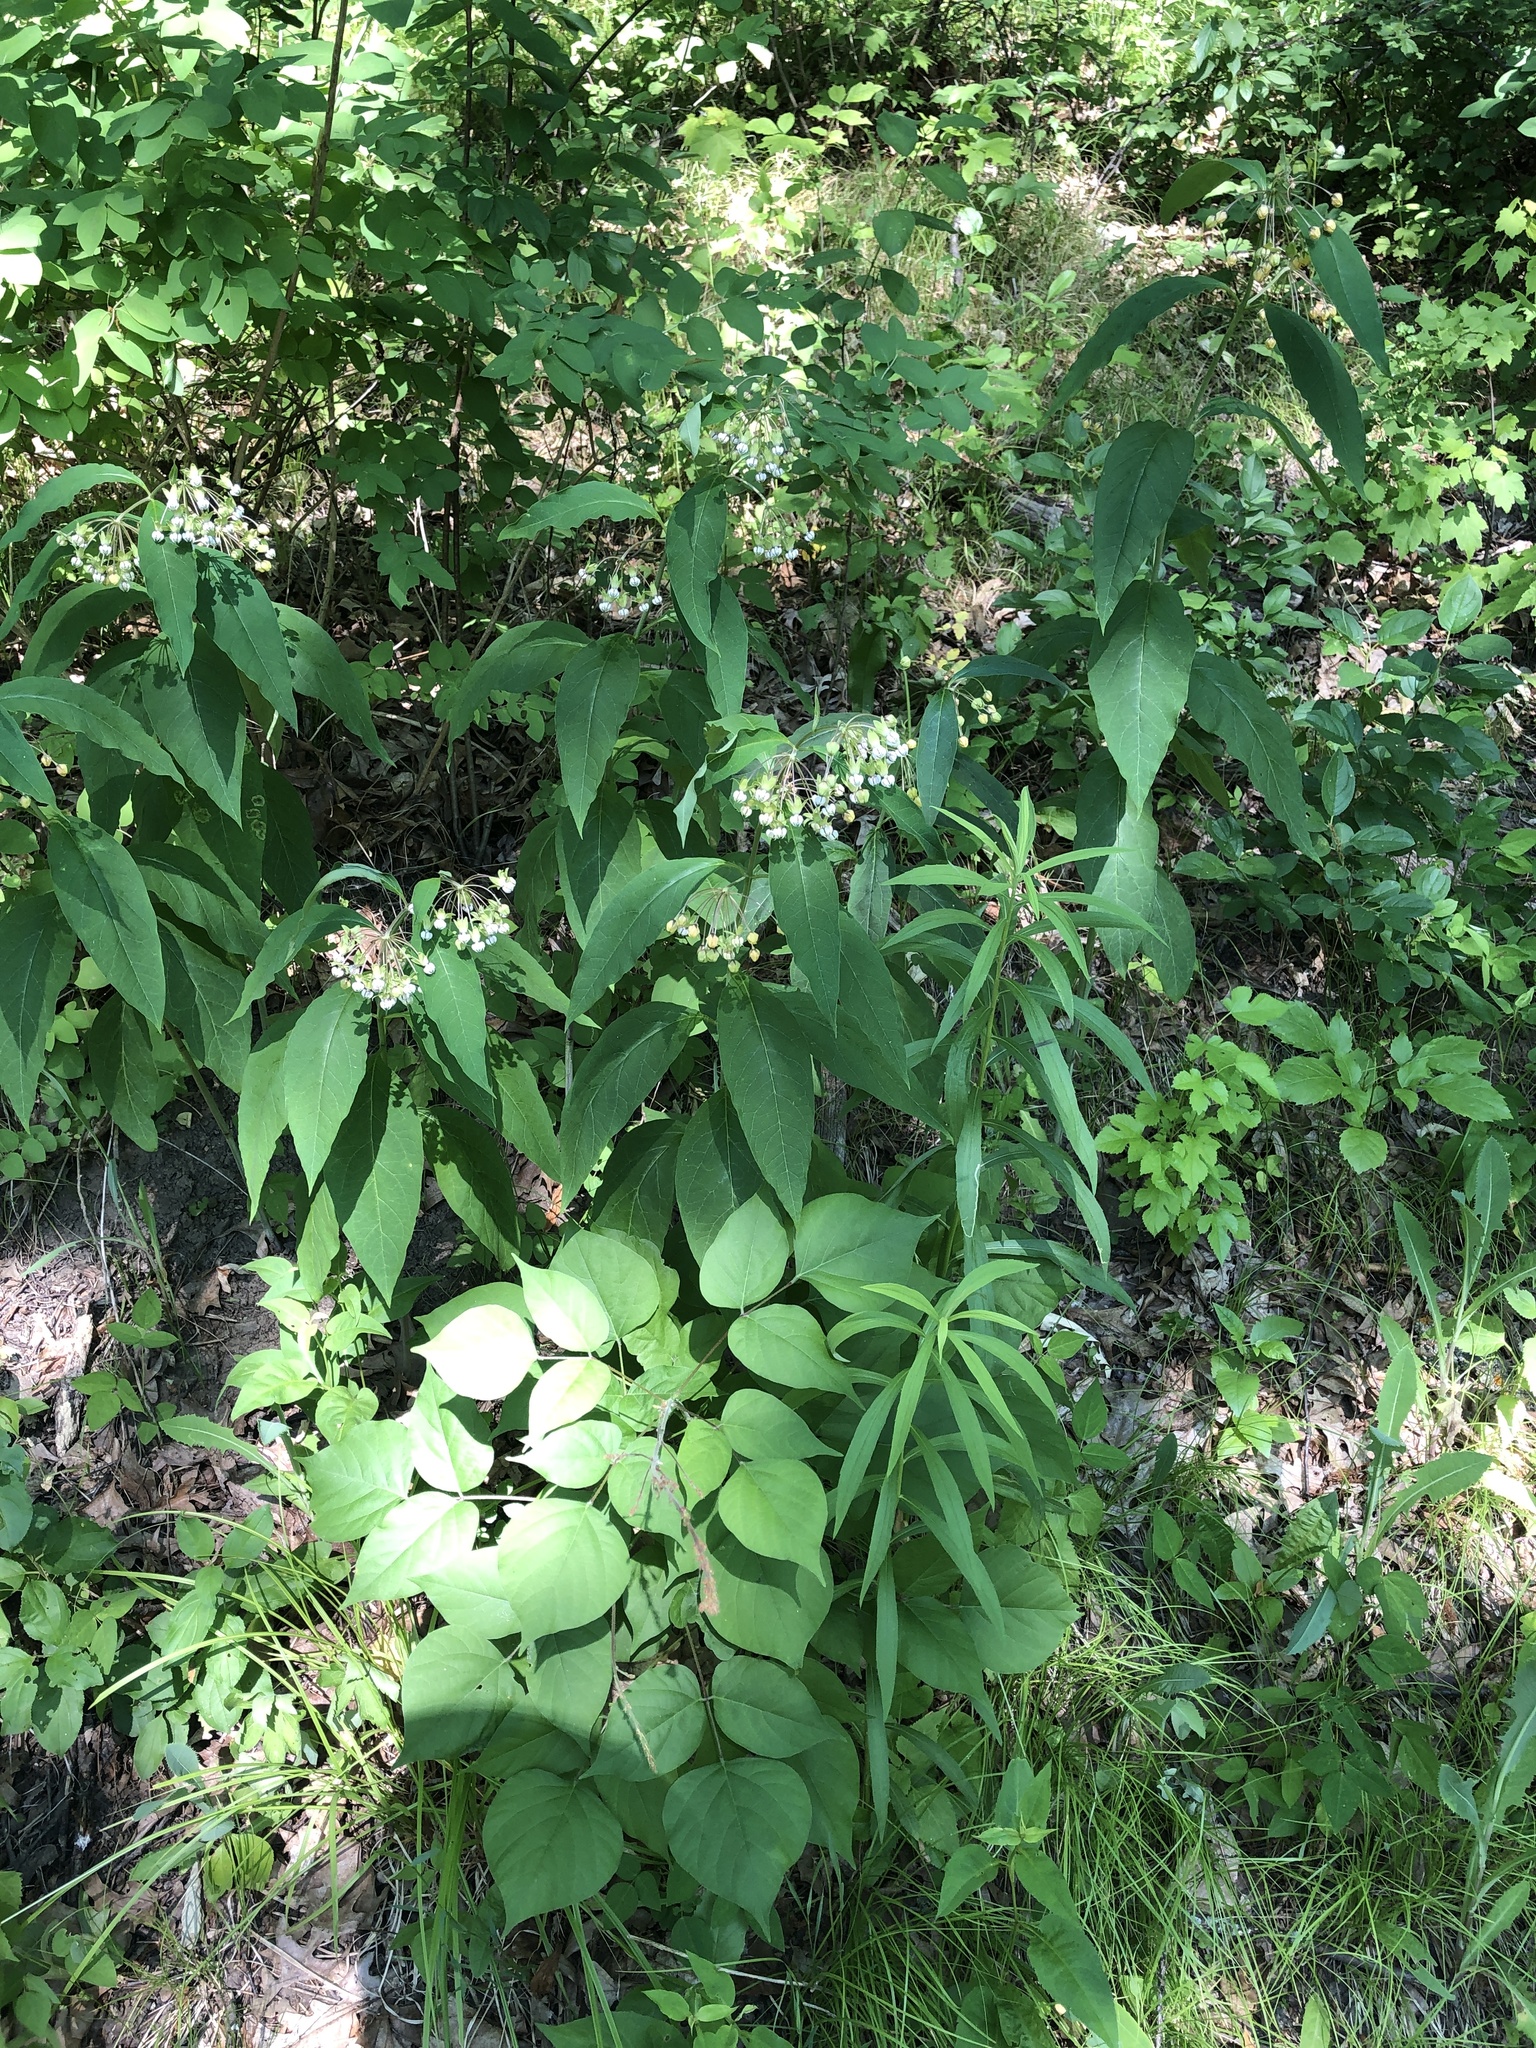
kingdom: Plantae
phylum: Tracheophyta
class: Magnoliopsida
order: Gentianales
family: Apocynaceae
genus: Asclepias
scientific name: Asclepias exaltata
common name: Poke milkweed
